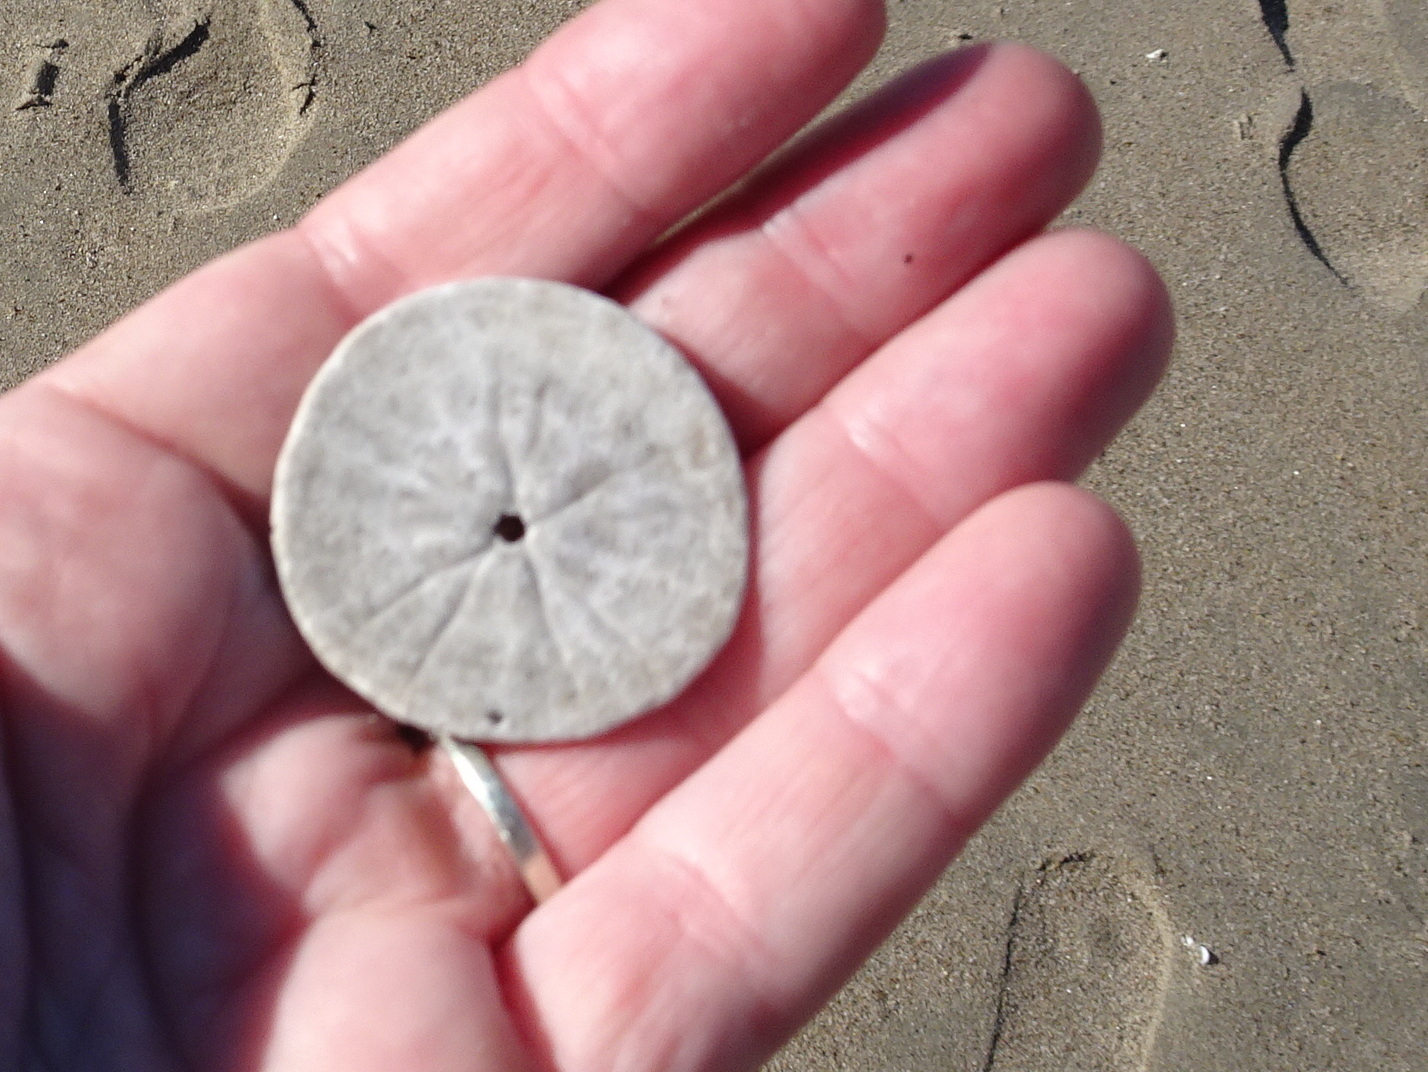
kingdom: Animalia
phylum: Echinodermata
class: Echinoidea
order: Echinolampadacea
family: Dendrasteridae
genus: Dendraster
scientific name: Dendraster excentricus
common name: Eccentric sand dollar sea urchin
